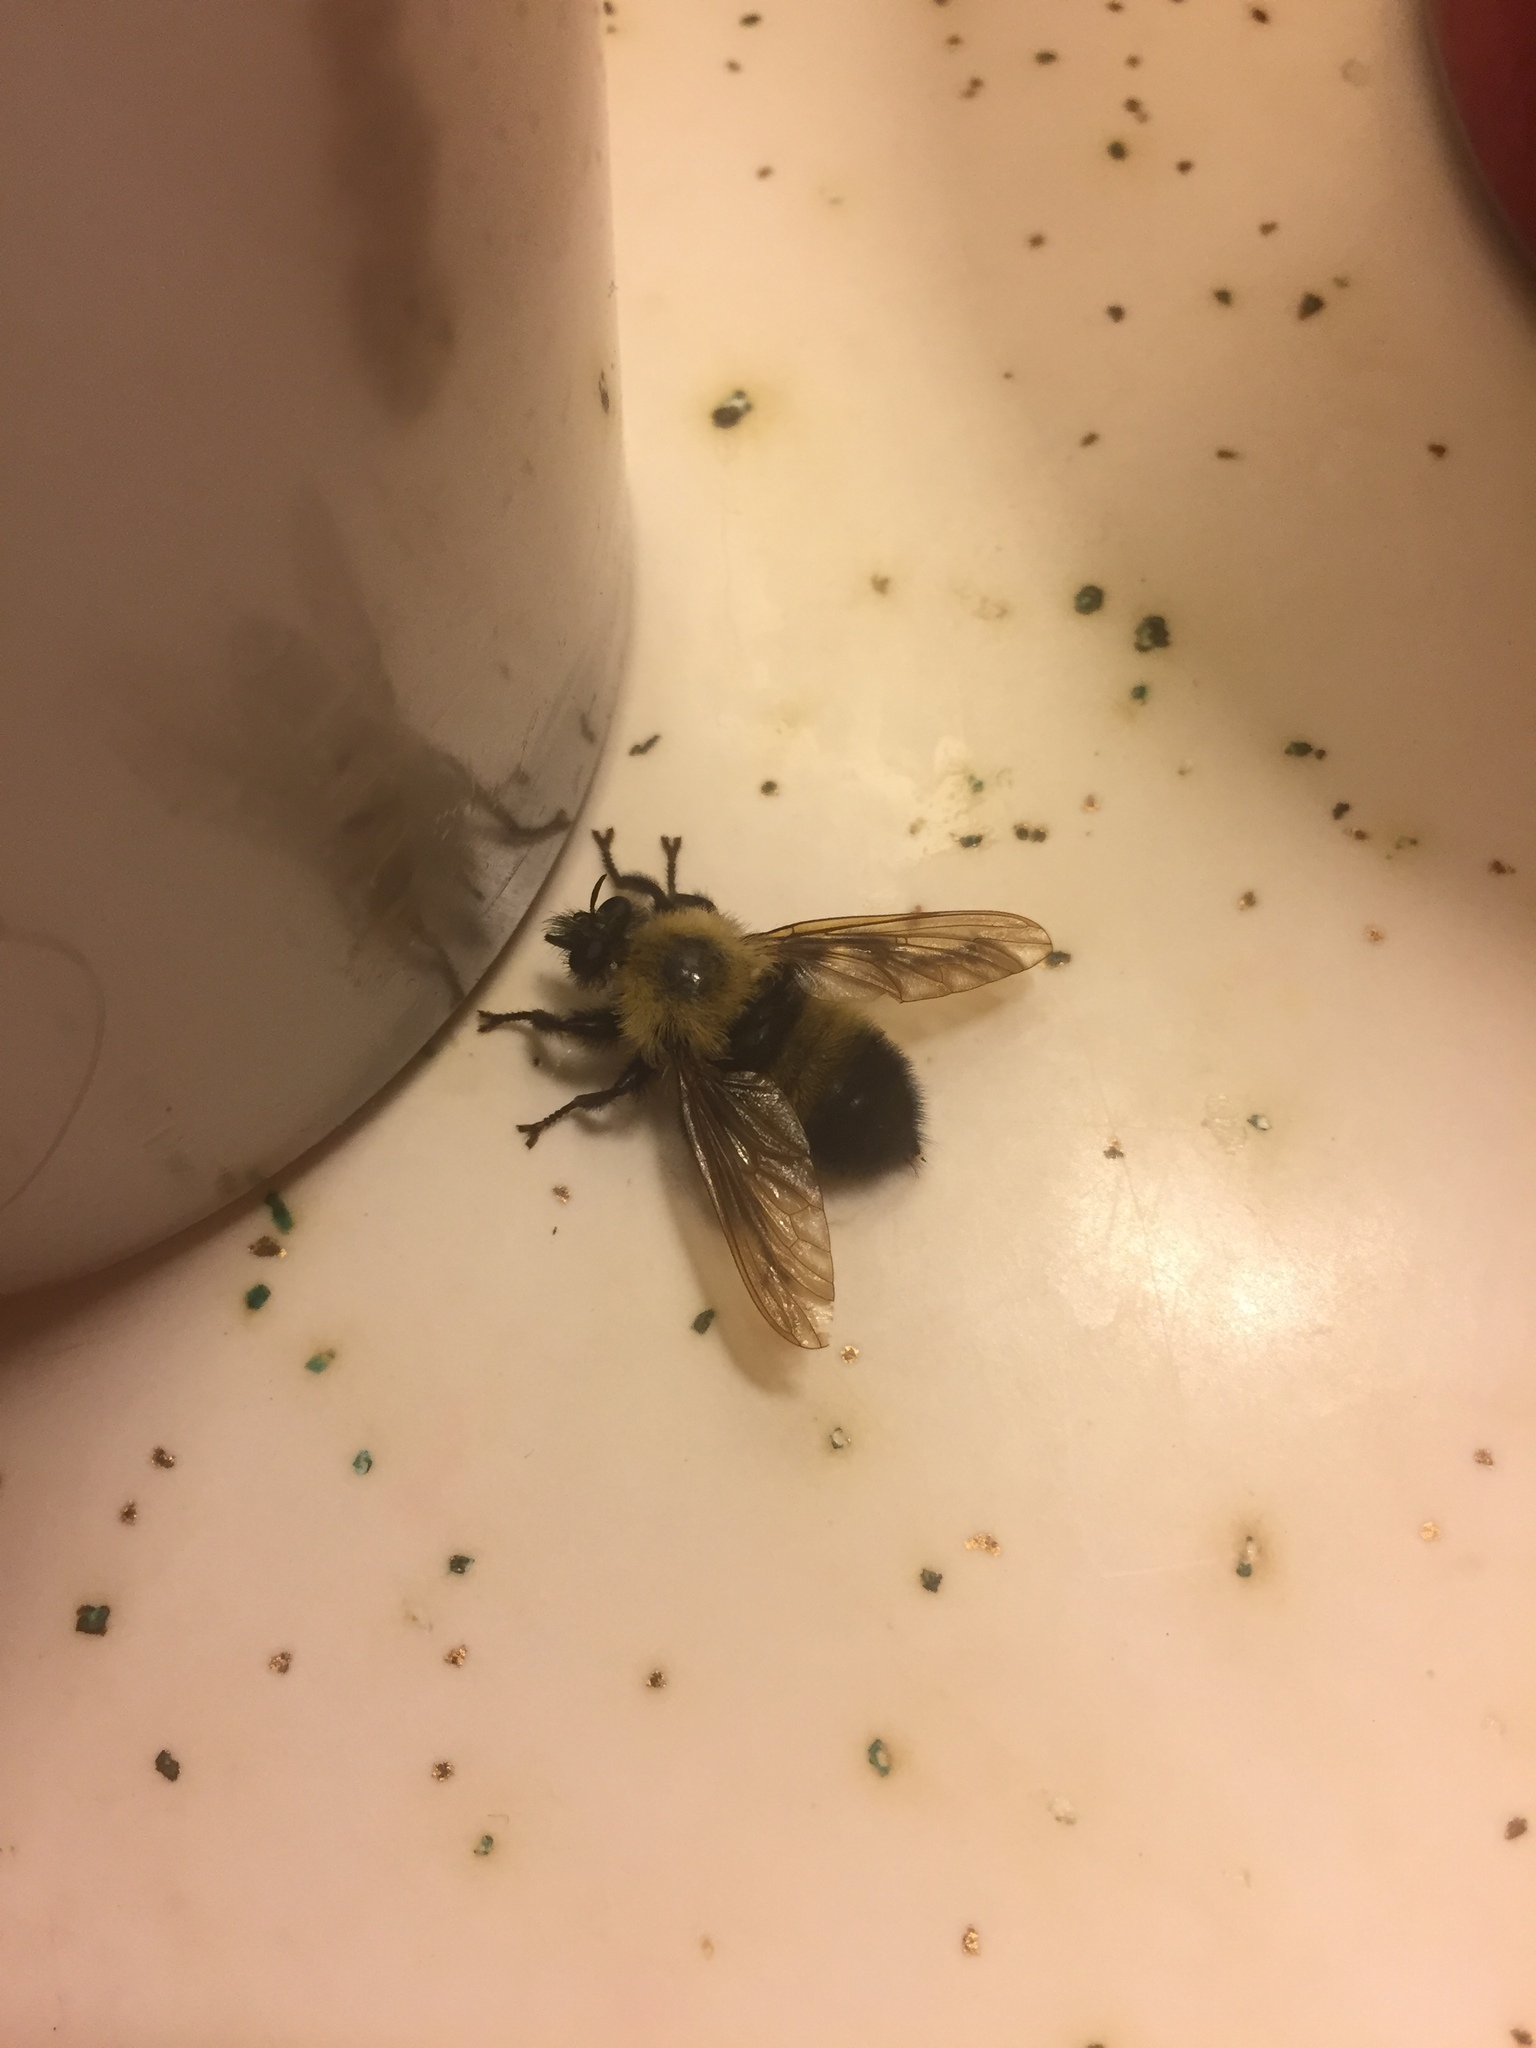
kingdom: Animalia
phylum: Arthropoda
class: Insecta
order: Diptera
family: Asilidae
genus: Laphria
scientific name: Laphria thoracica
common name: Bumble bee mimic robber fly
